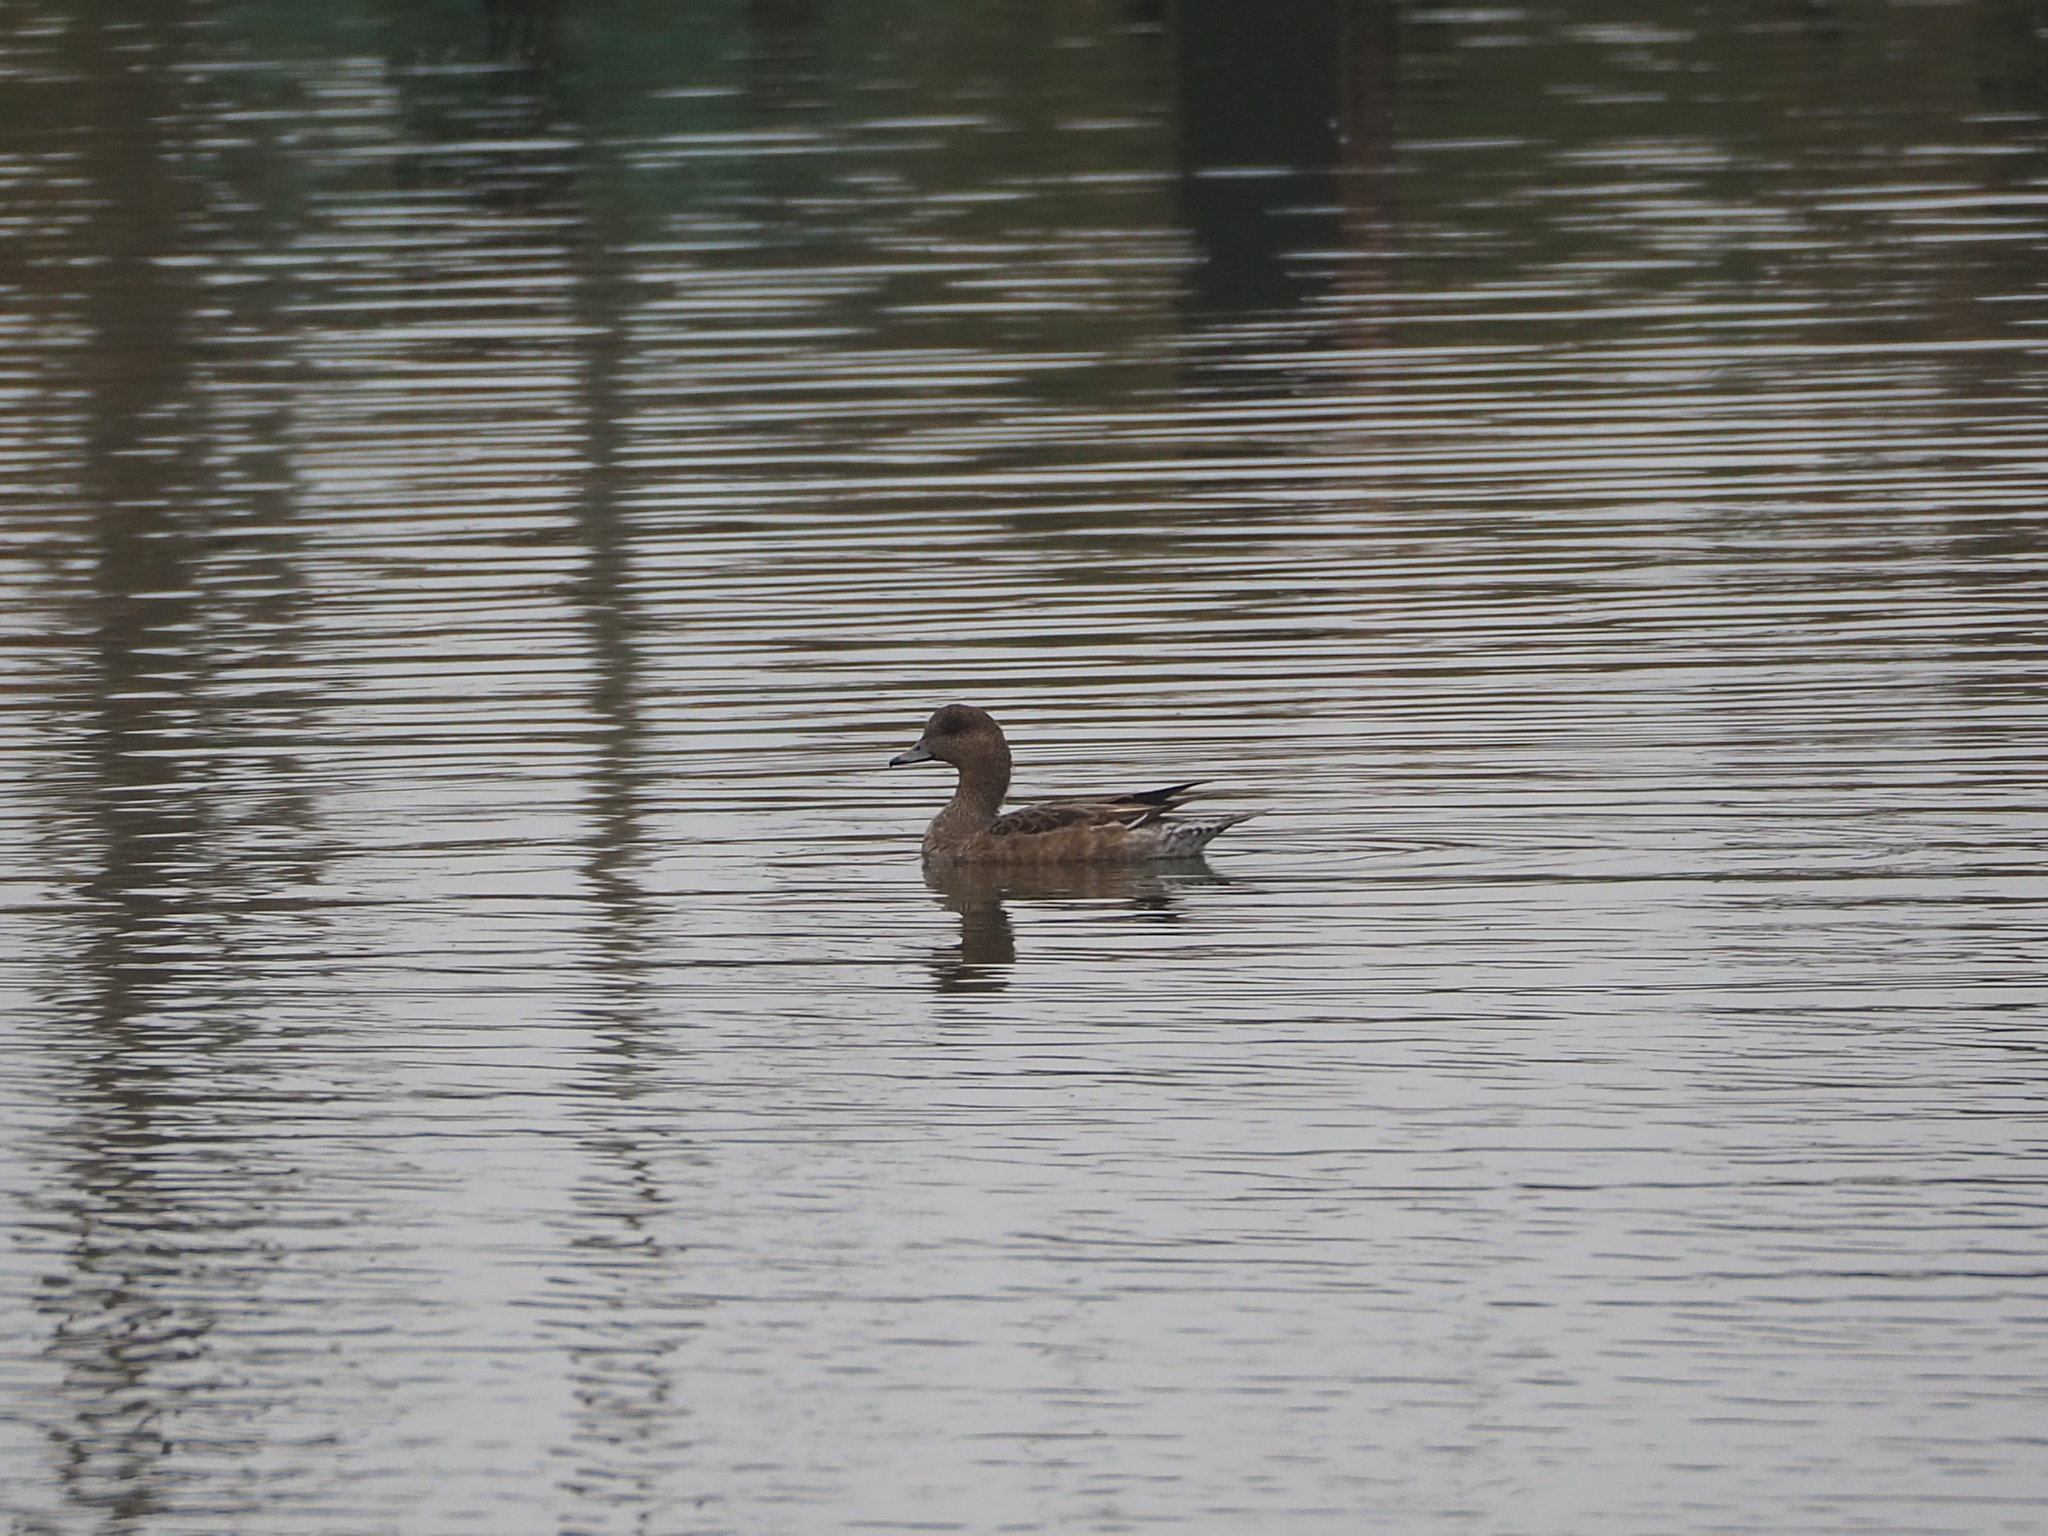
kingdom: Animalia
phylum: Chordata
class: Aves
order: Anseriformes
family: Anatidae
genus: Mareca
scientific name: Mareca penelope
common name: Eurasian wigeon
